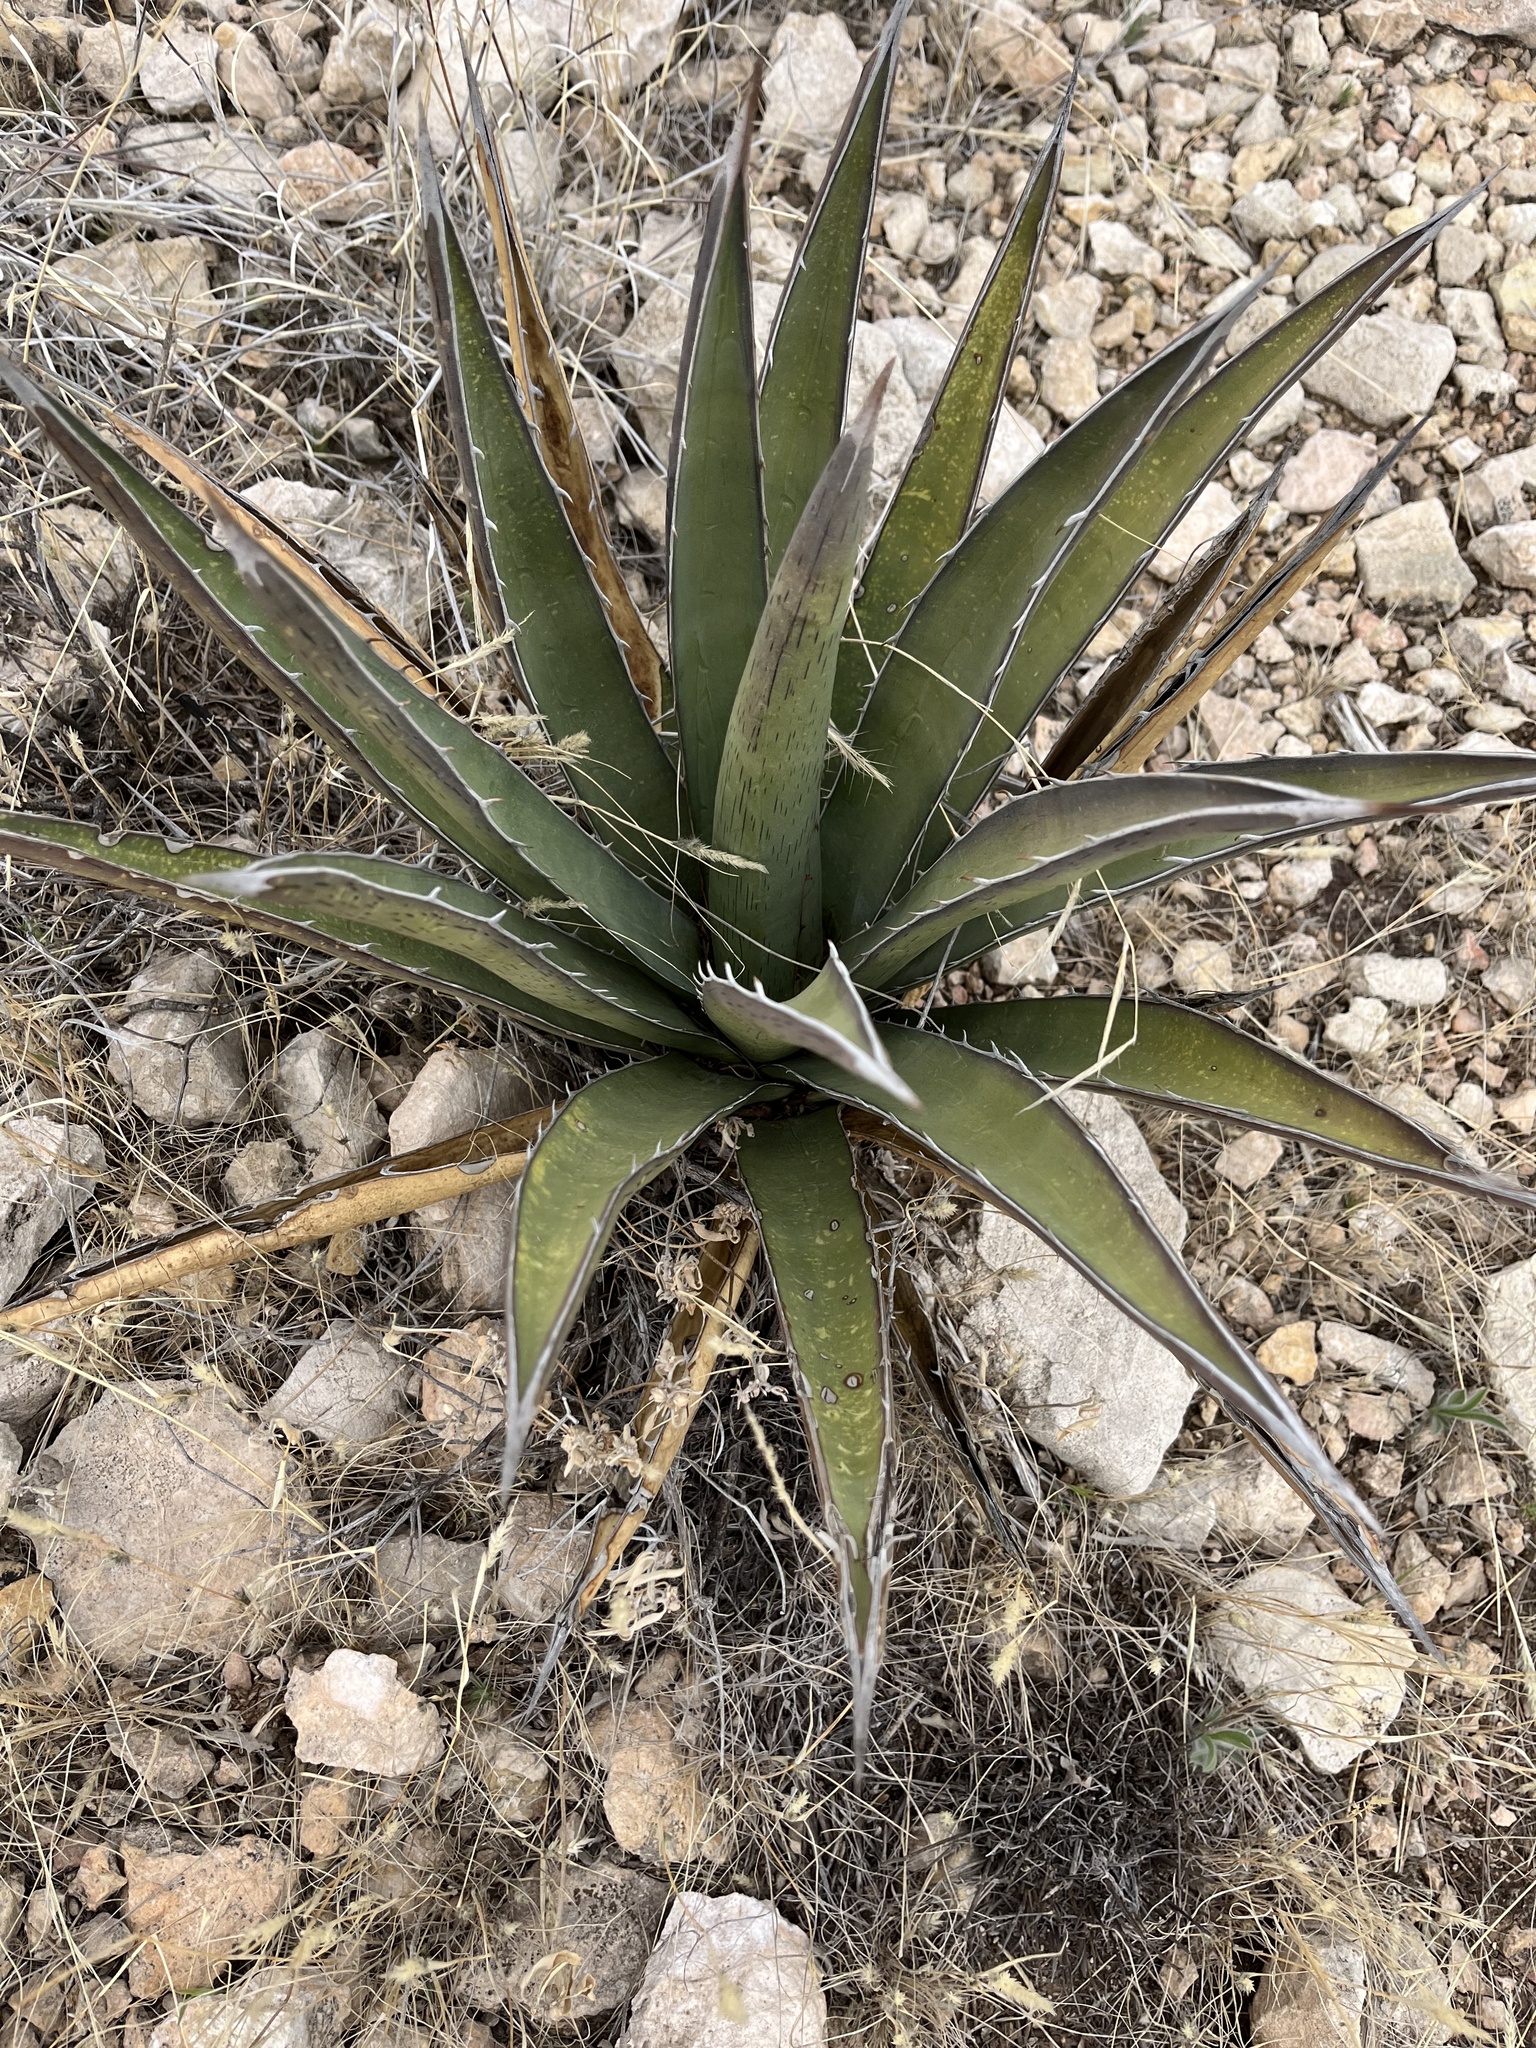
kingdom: Plantae
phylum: Tracheophyta
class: Liliopsida
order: Asparagales
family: Asparagaceae
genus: Agave
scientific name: Agave lechuguilla
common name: Lecheguilla agave
